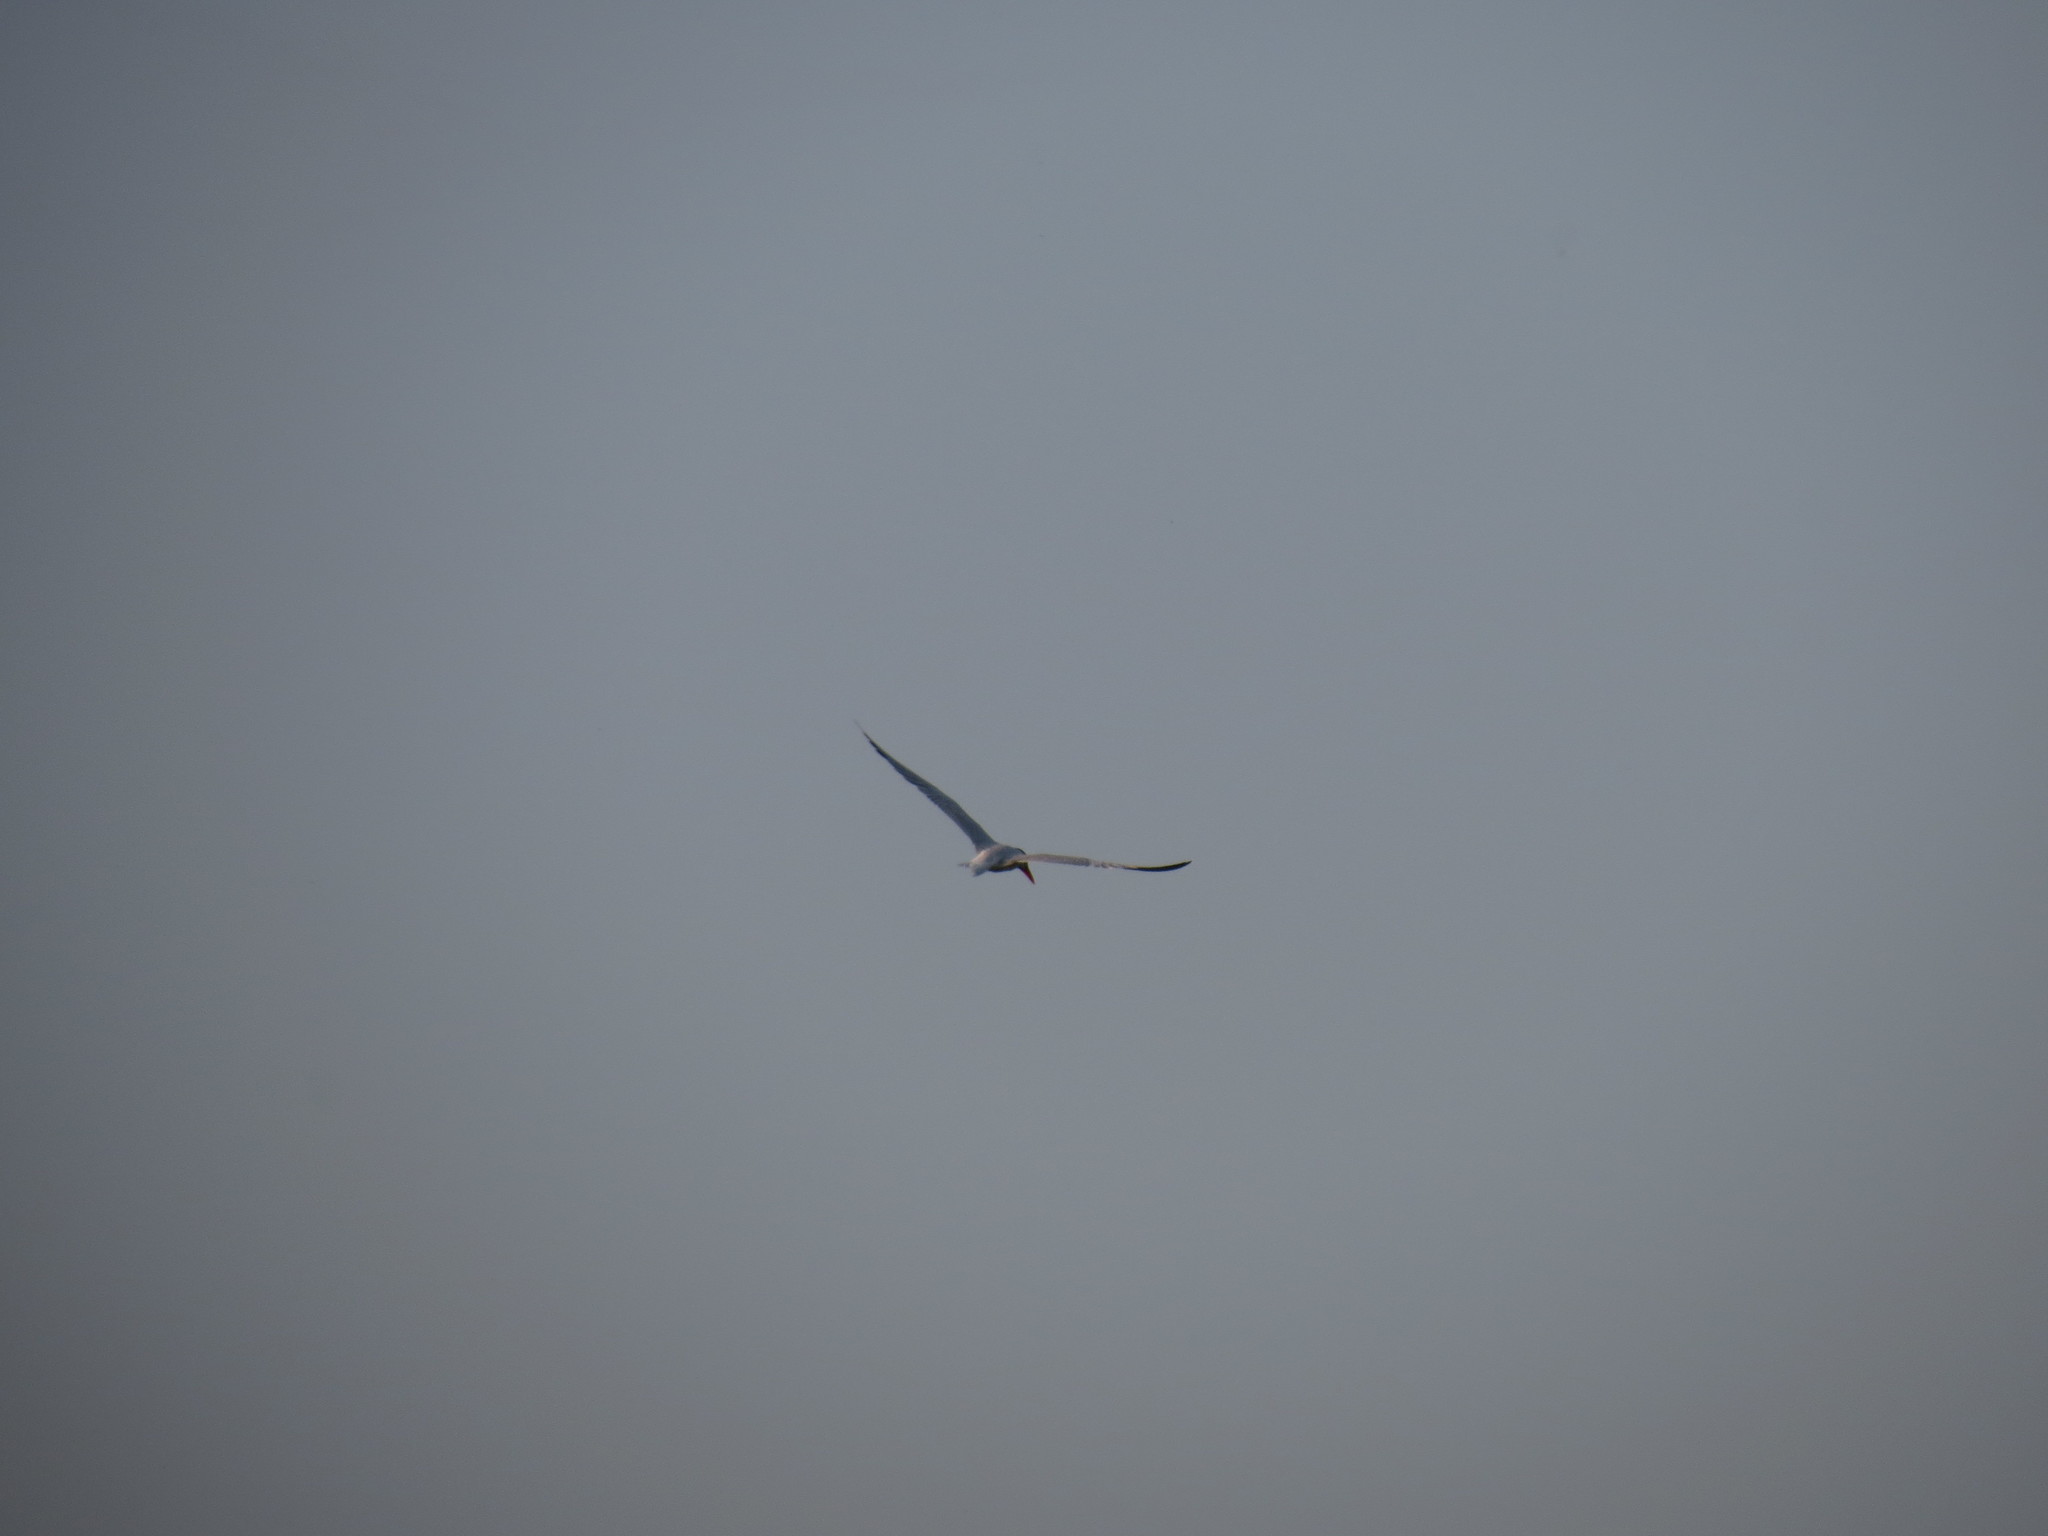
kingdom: Animalia
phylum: Chordata
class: Aves
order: Charadriiformes
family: Laridae
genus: Hydroprogne
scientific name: Hydroprogne caspia
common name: Caspian tern
